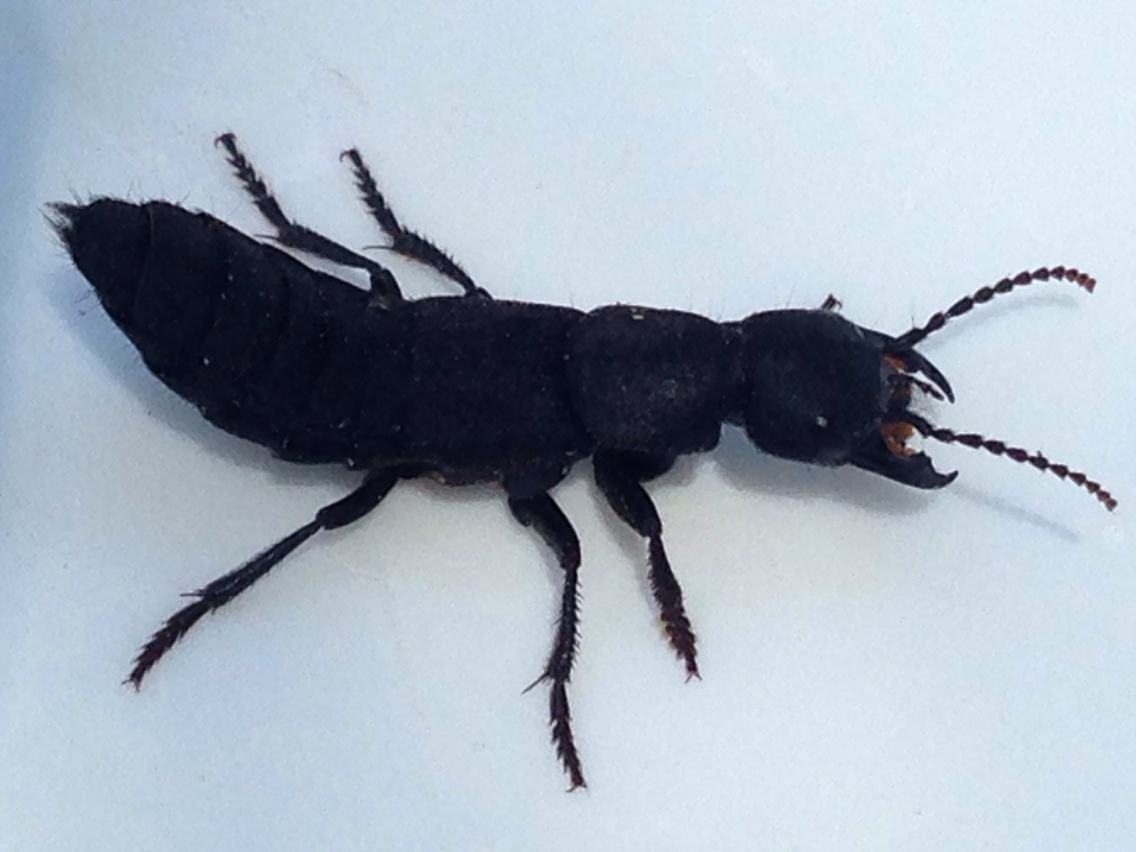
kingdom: Animalia
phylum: Arthropoda
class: Insecta
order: Coleoptera
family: Staphylinidae
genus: Ocypus
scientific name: Ocypus olens
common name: Devil's coach-horse
